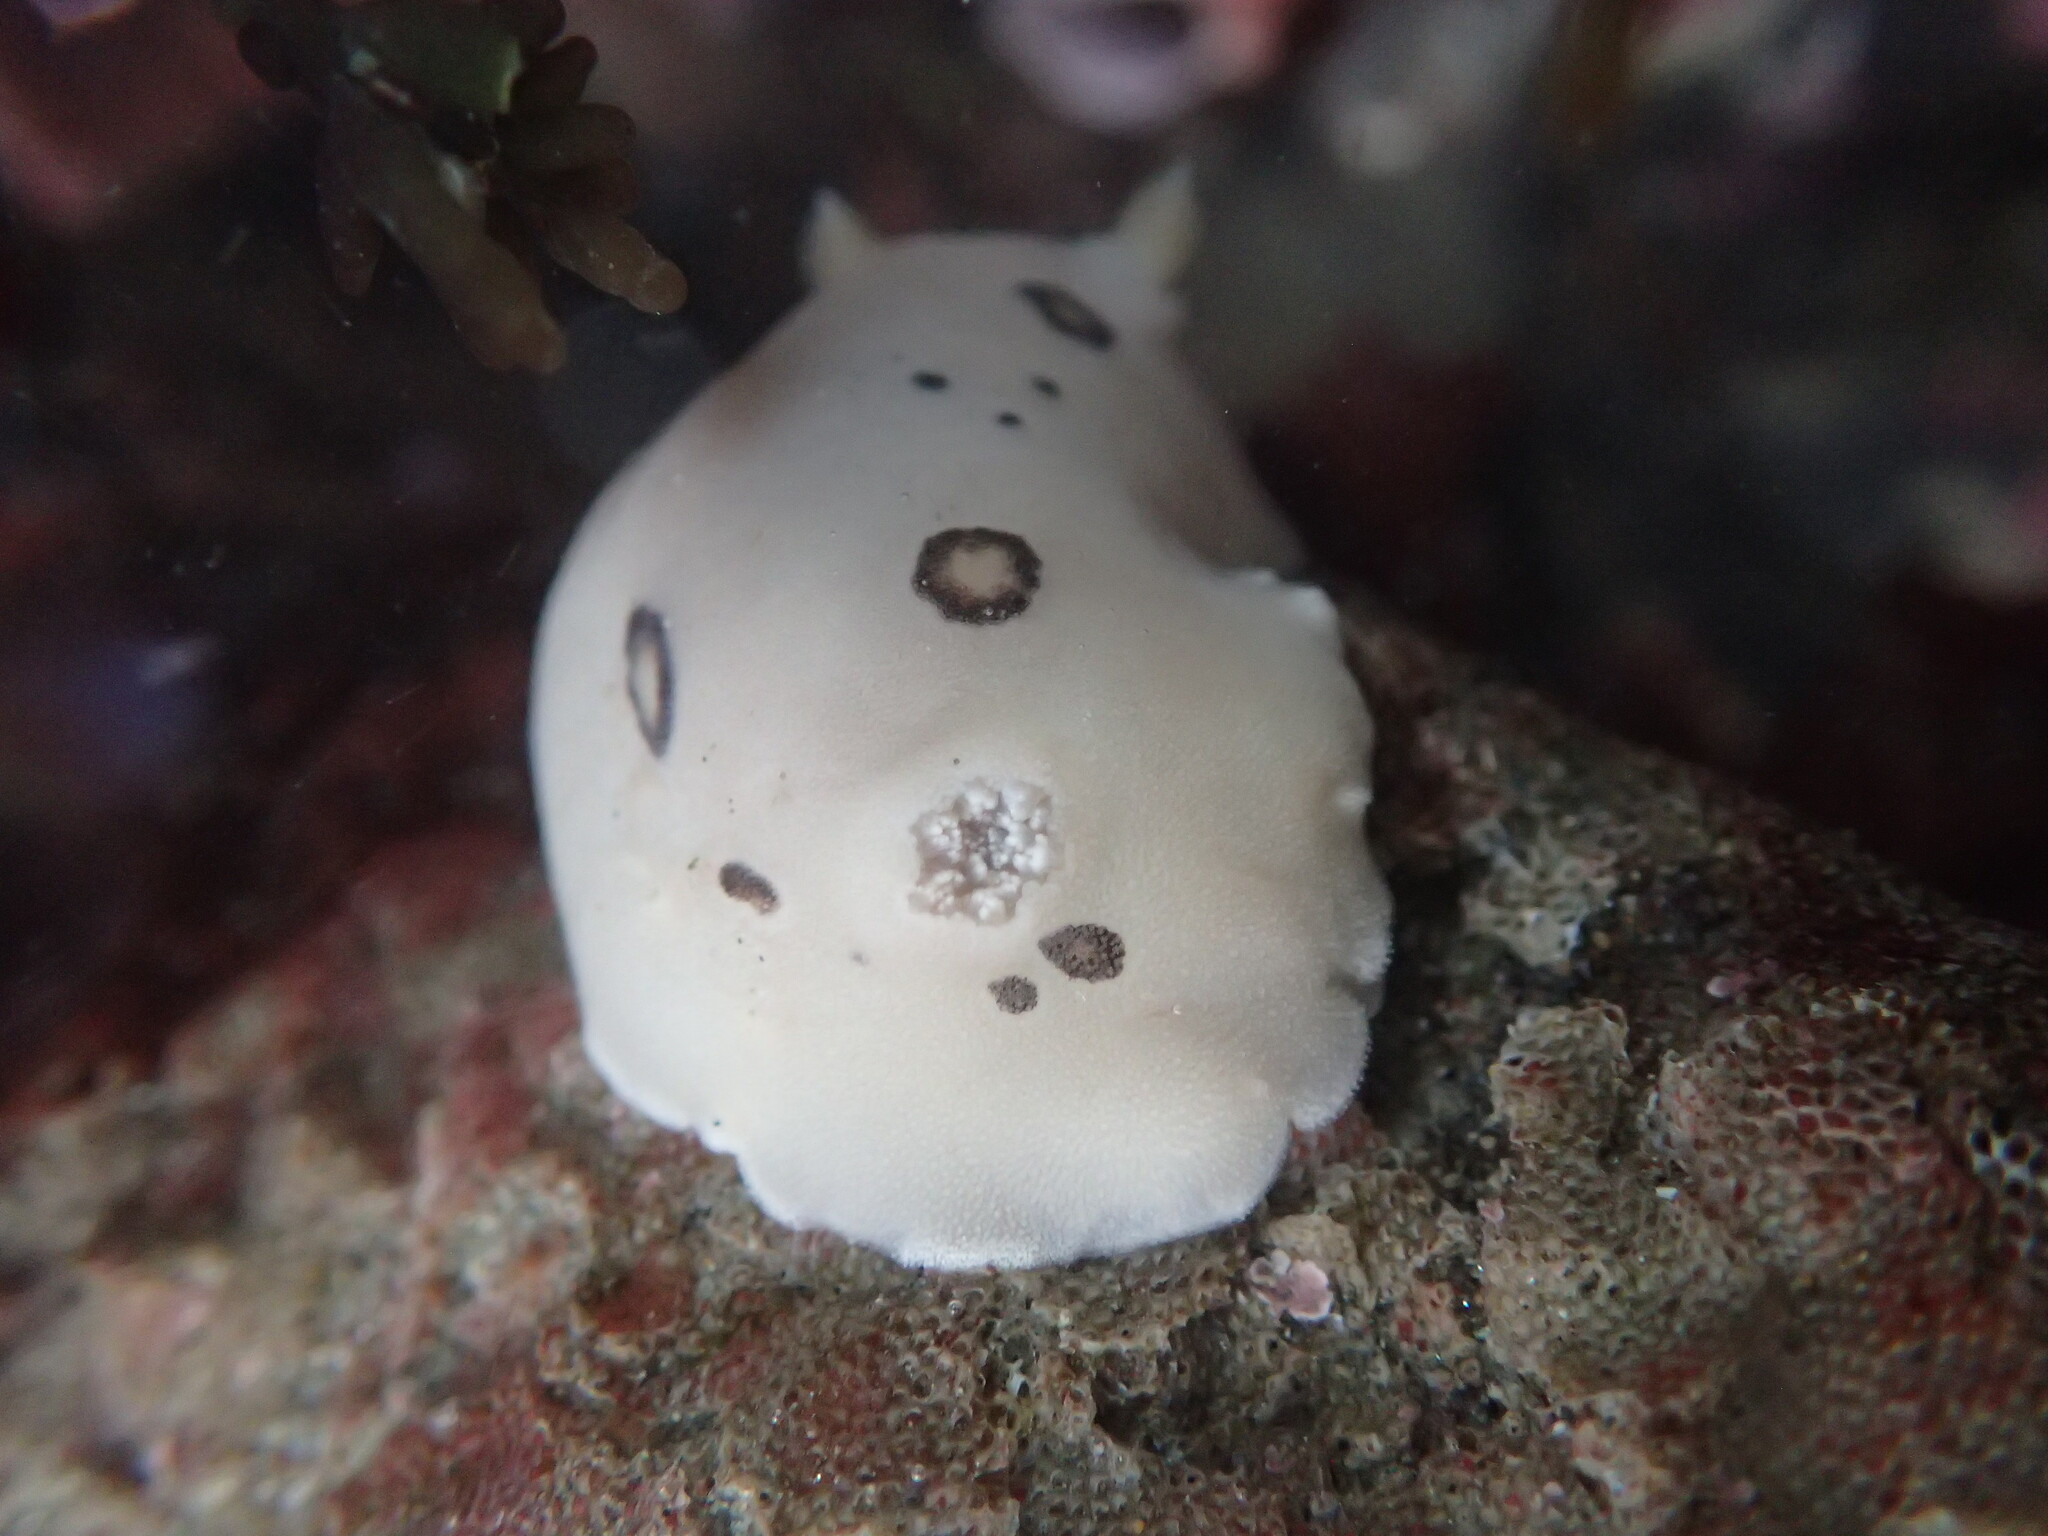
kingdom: Animalia
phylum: Mollusca
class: Gastropoda
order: Nudibranchia
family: Discodorididae
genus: Diaulula
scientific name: Diaulula sandiegensis
